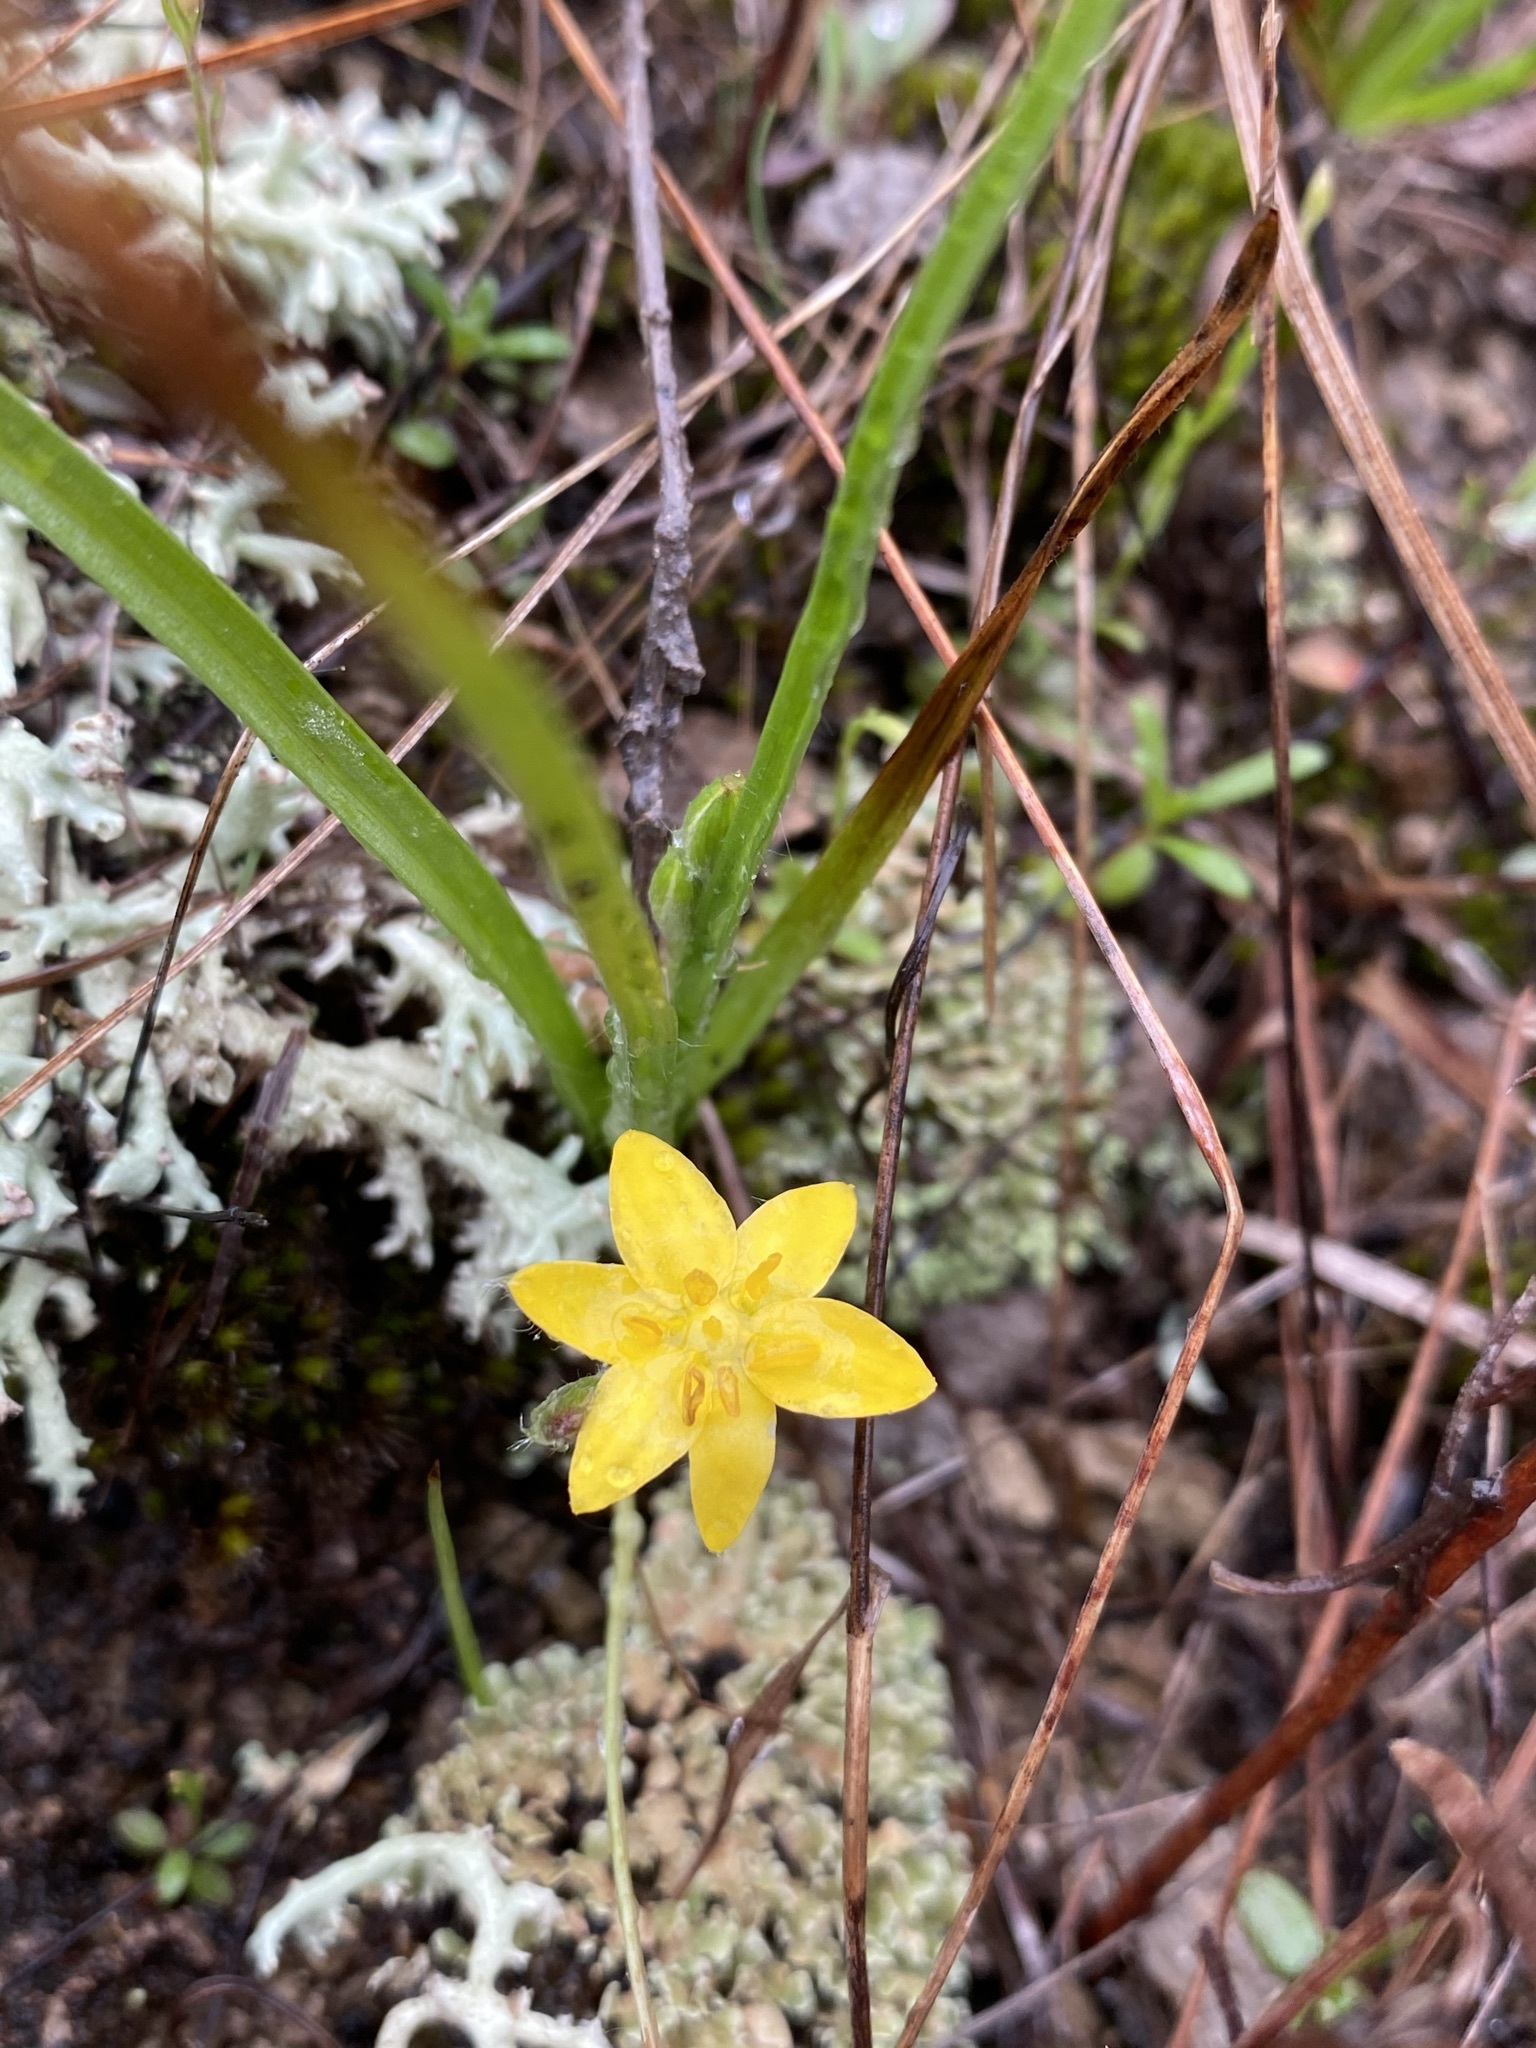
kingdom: Plantae
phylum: Tracheophyta
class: Liliopsida
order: Asparagales
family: Hypoxidaceae
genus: Hypoxis
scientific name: Hypoxis hirsuta
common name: Common goldstar
